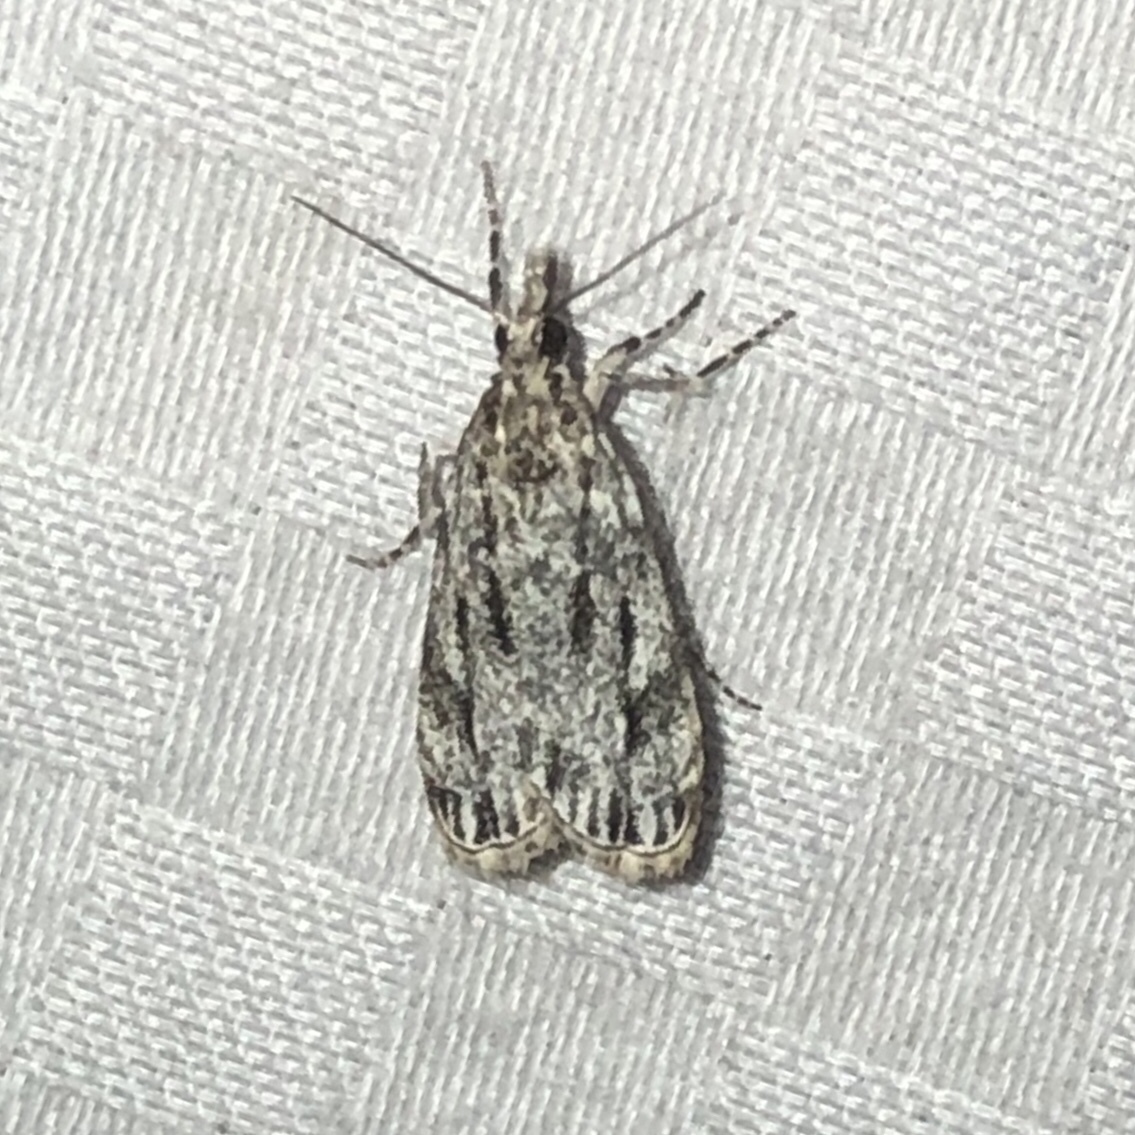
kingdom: Animalia
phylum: Arthropoda
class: Insecta
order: Lepidoptera
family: Crambidae
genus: Eudonia
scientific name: Eudonia strigalis
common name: Striped eudonia moth
